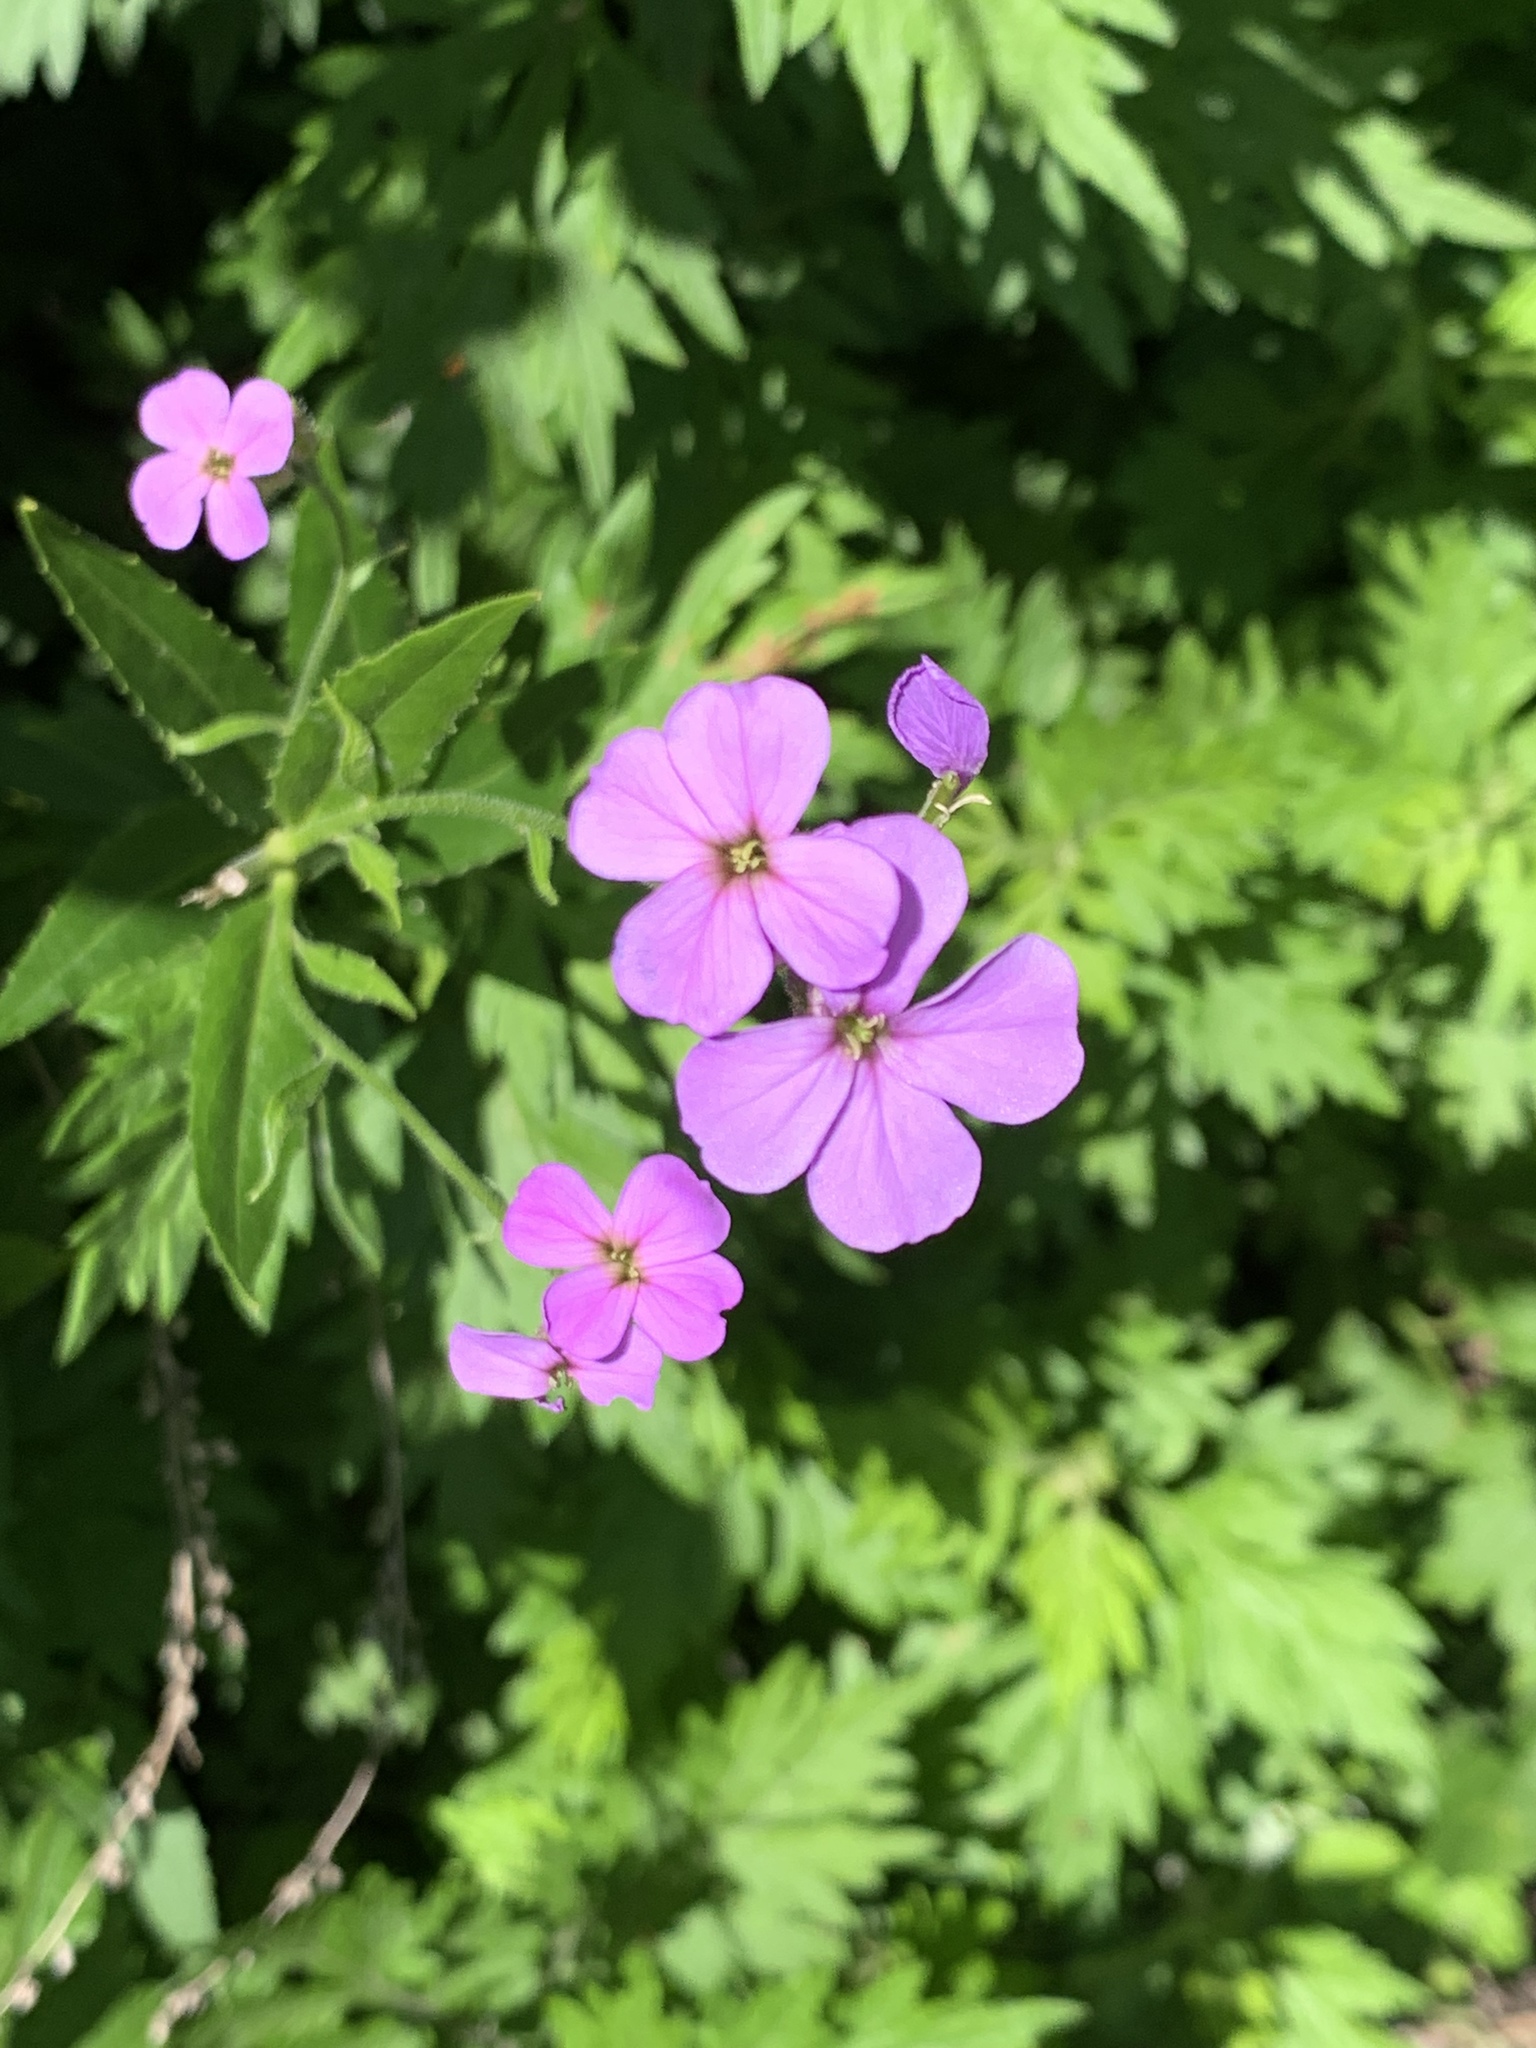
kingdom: Plantae
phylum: Tracheophyta
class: Magnoliopsida
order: Brassicales
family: Brassicaceae
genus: Hesperis
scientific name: Hesperis matronalis
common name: Dame's-violet
